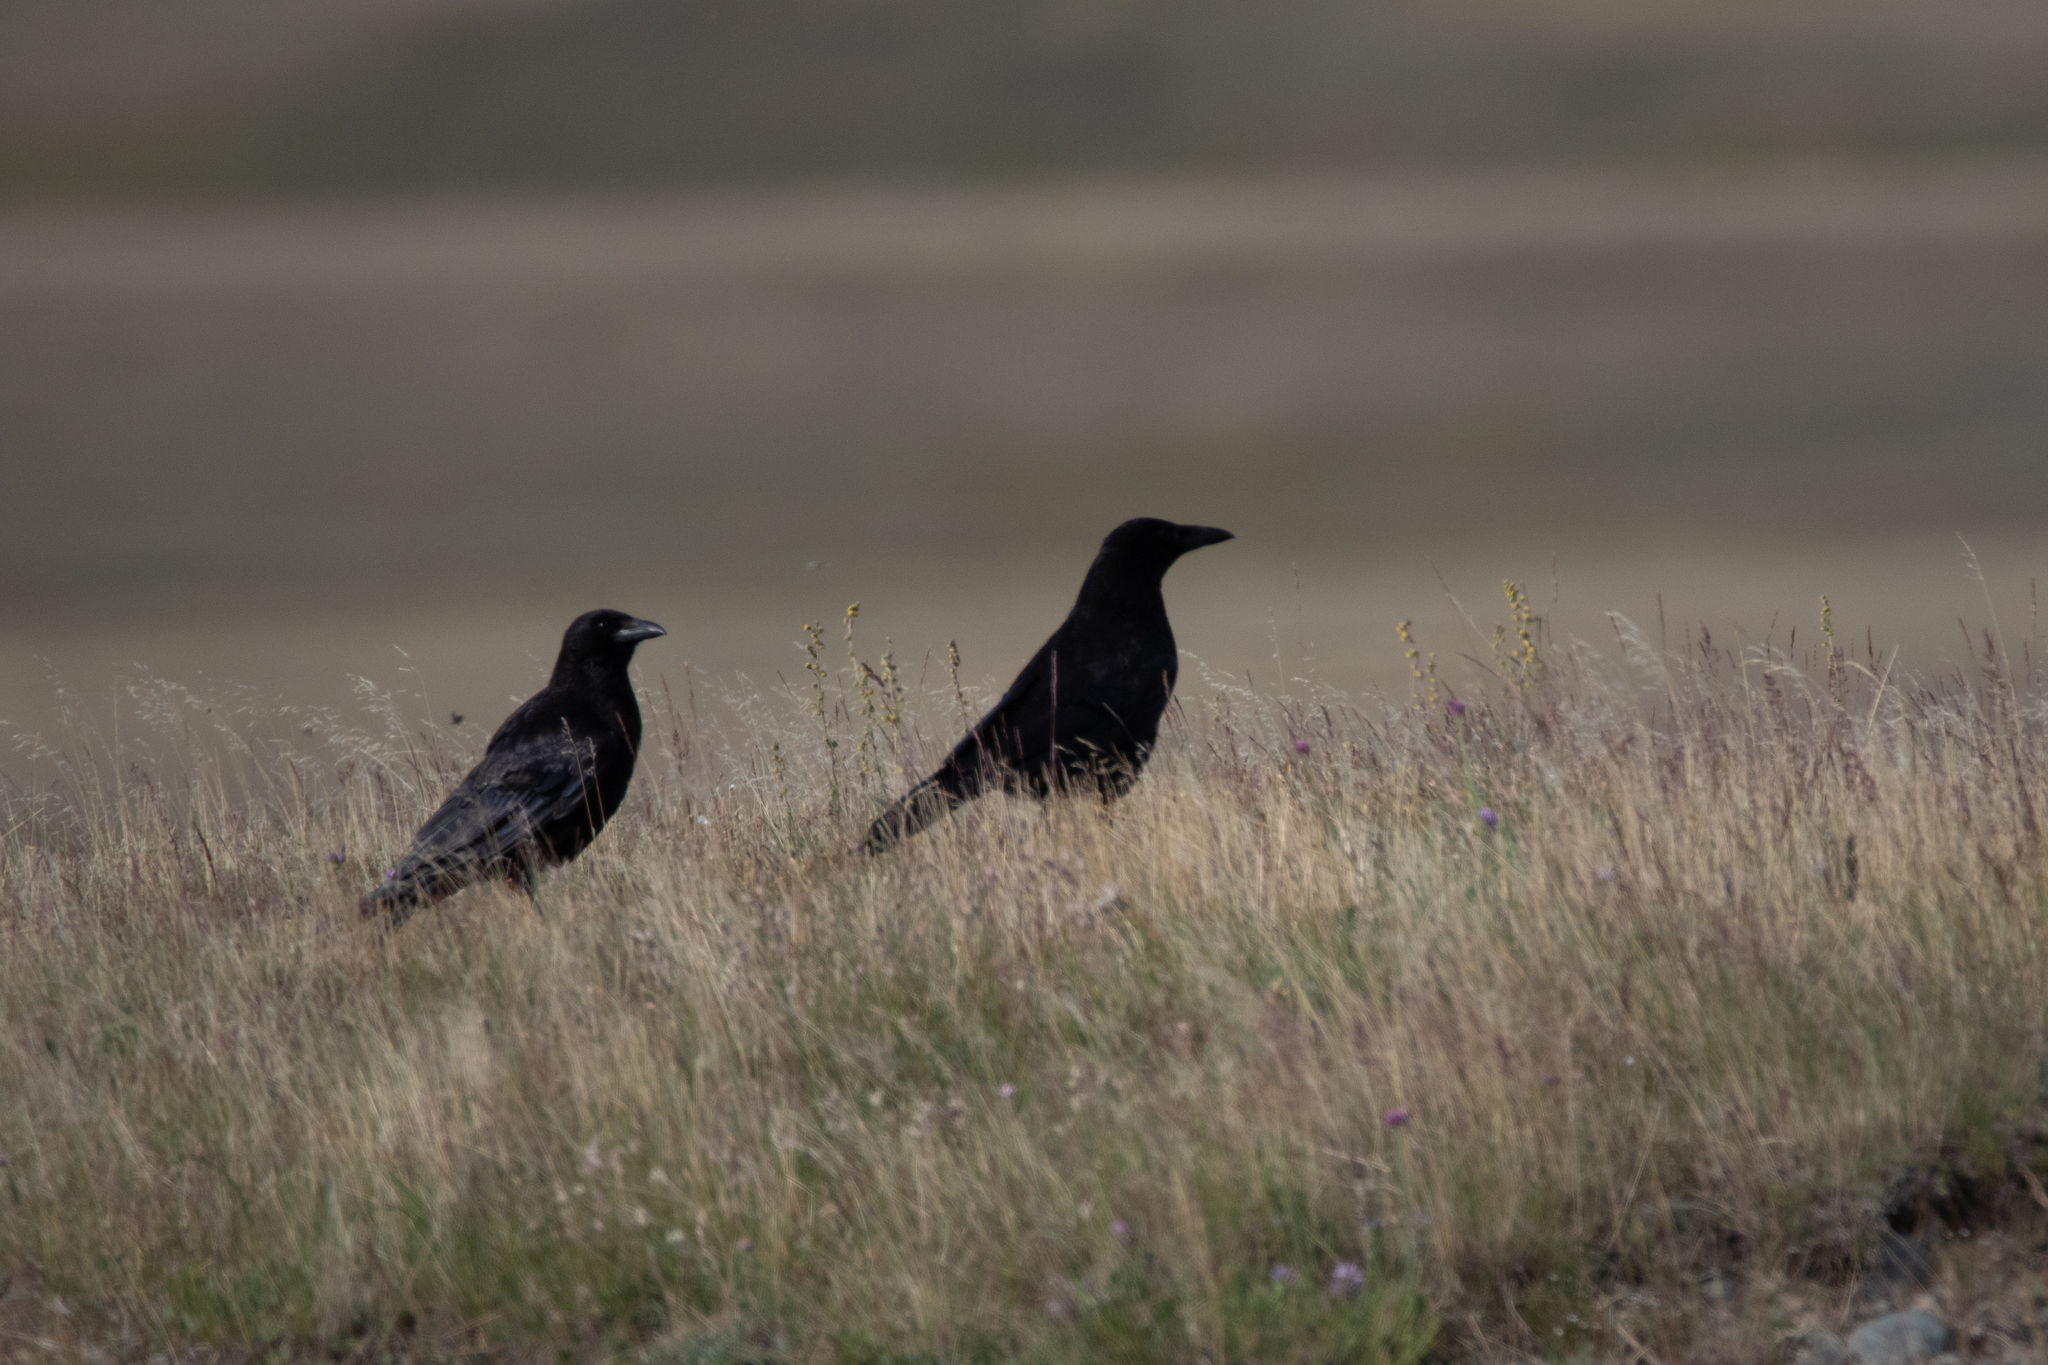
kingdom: Animalia
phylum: Chordata
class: Aves
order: Passeriformes
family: Corvidae
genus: Corvus
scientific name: Corvus corone
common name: Carrion crow
